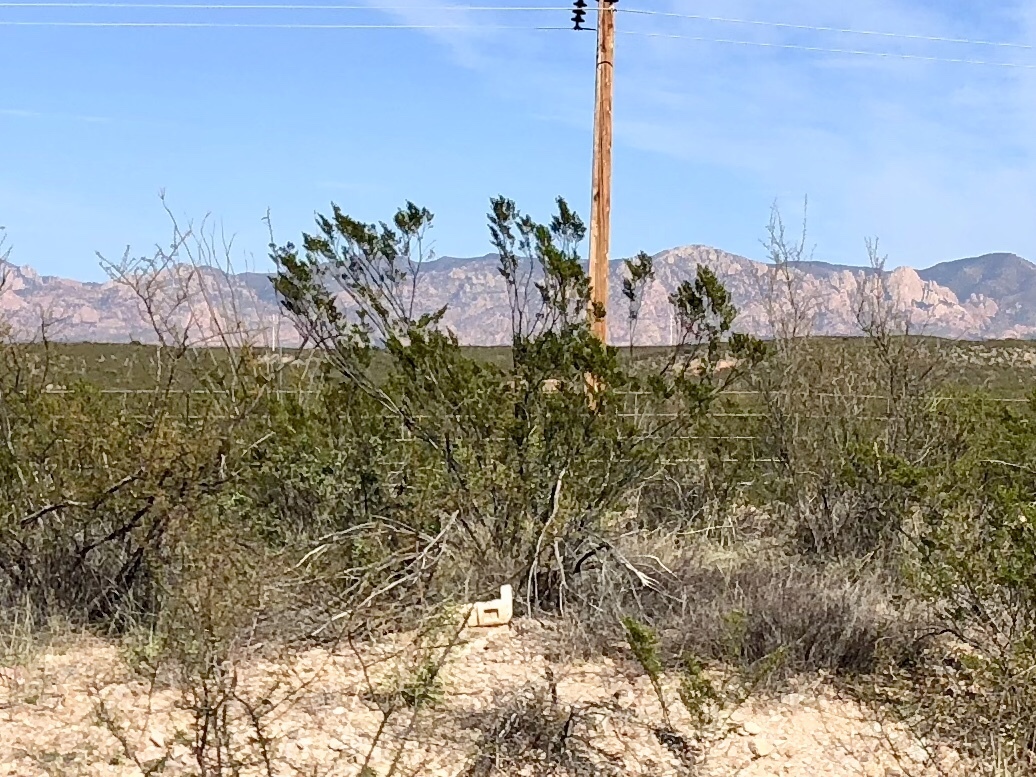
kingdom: Plantae
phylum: Tracheophyta
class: Magnoliopsida
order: Zygophyllales
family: Zygophyllaceae
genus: Larrea
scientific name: Larrea tridentata
